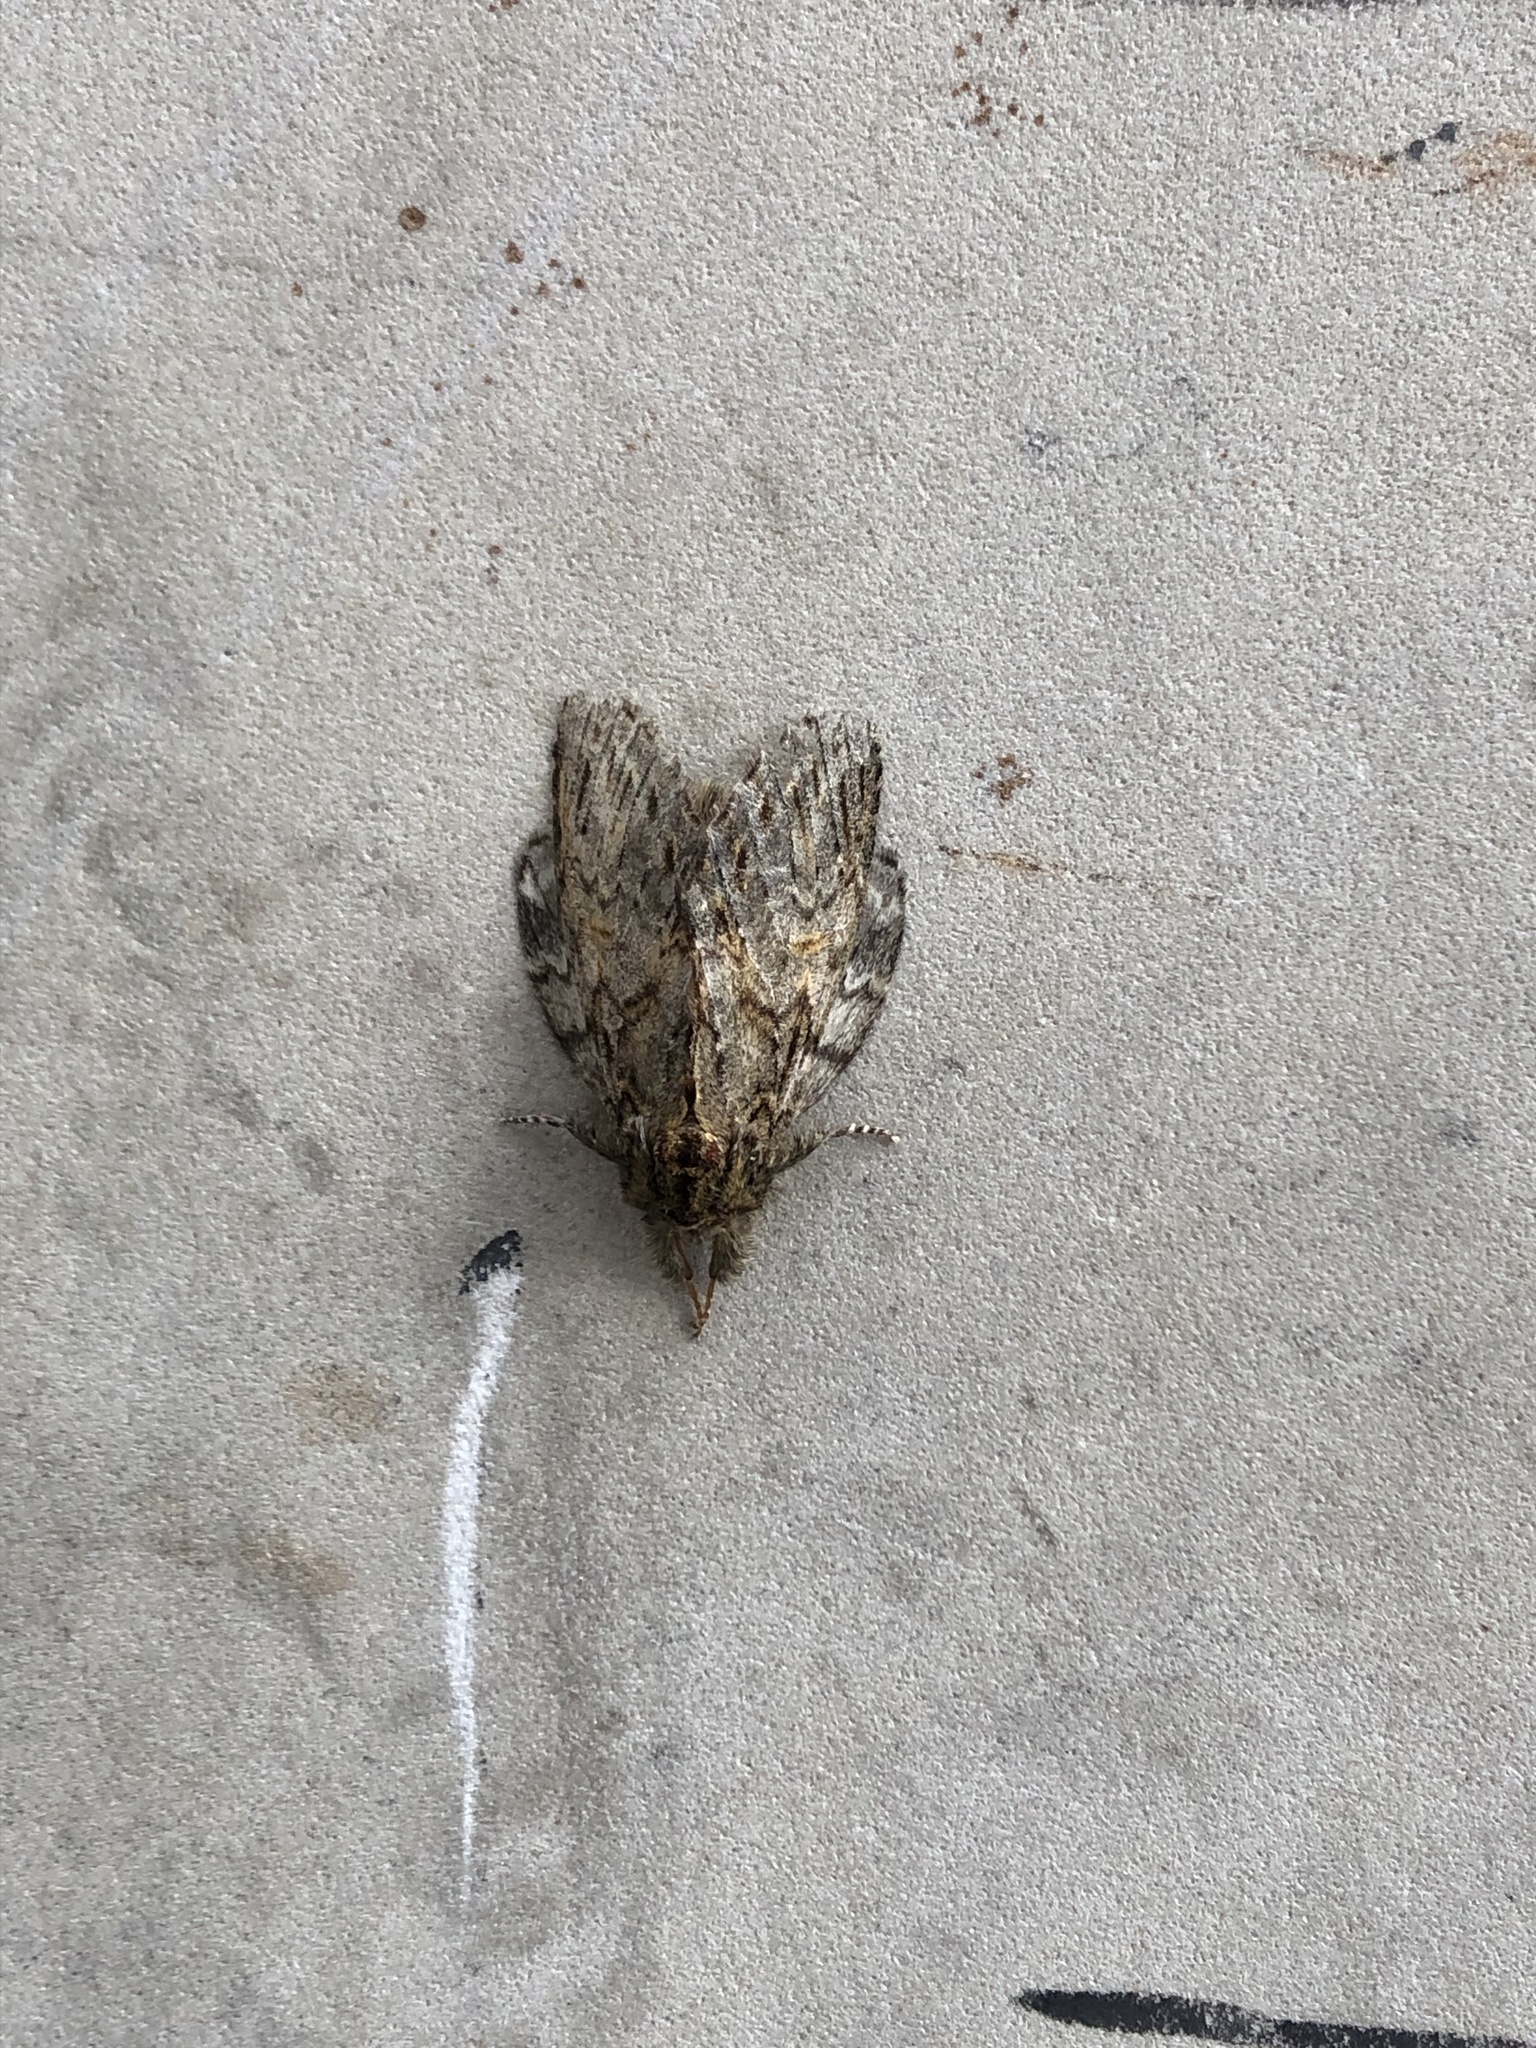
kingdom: Animalia
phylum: Arthropoda
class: Insecta
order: Lepidoptera
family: Notodontidae
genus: Peridea
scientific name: Peridea anceps
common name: Great prominent
